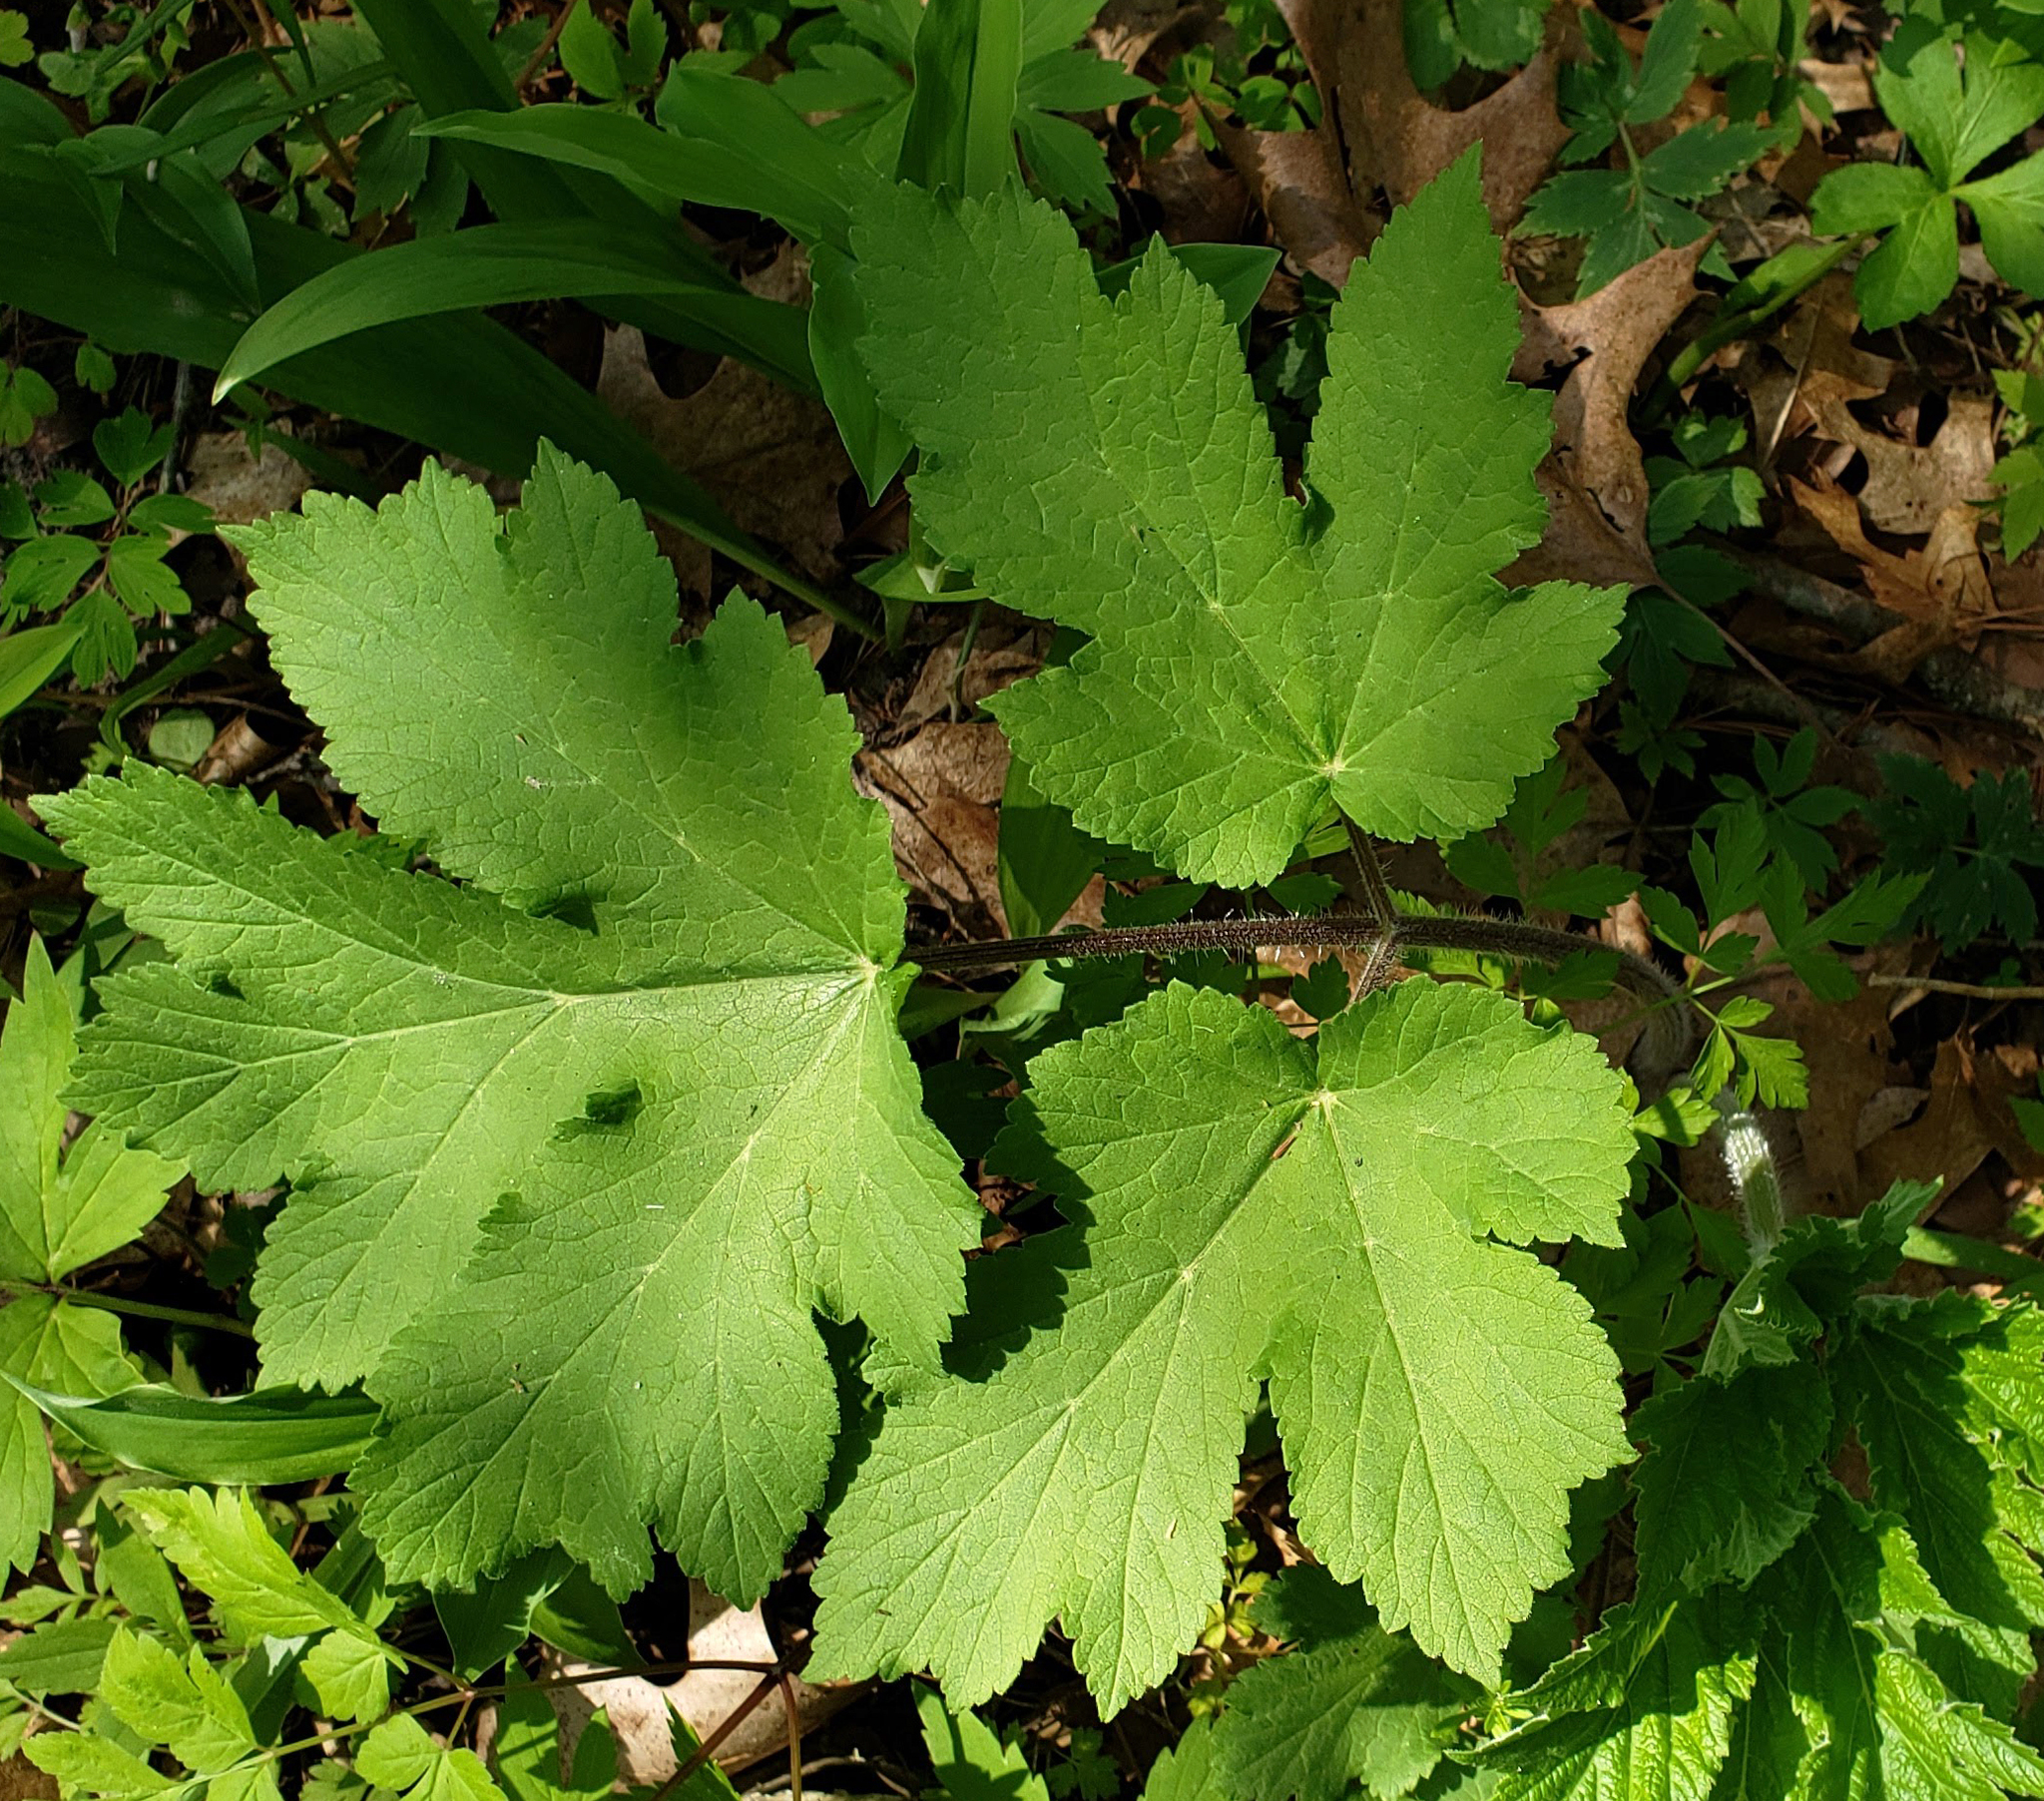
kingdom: Plantae
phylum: Tracheophyta
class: Magnoliopsida
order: Apiales
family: Apiaceae
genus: Heracleum
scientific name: Heracleum maximum
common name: American cow parsnip
